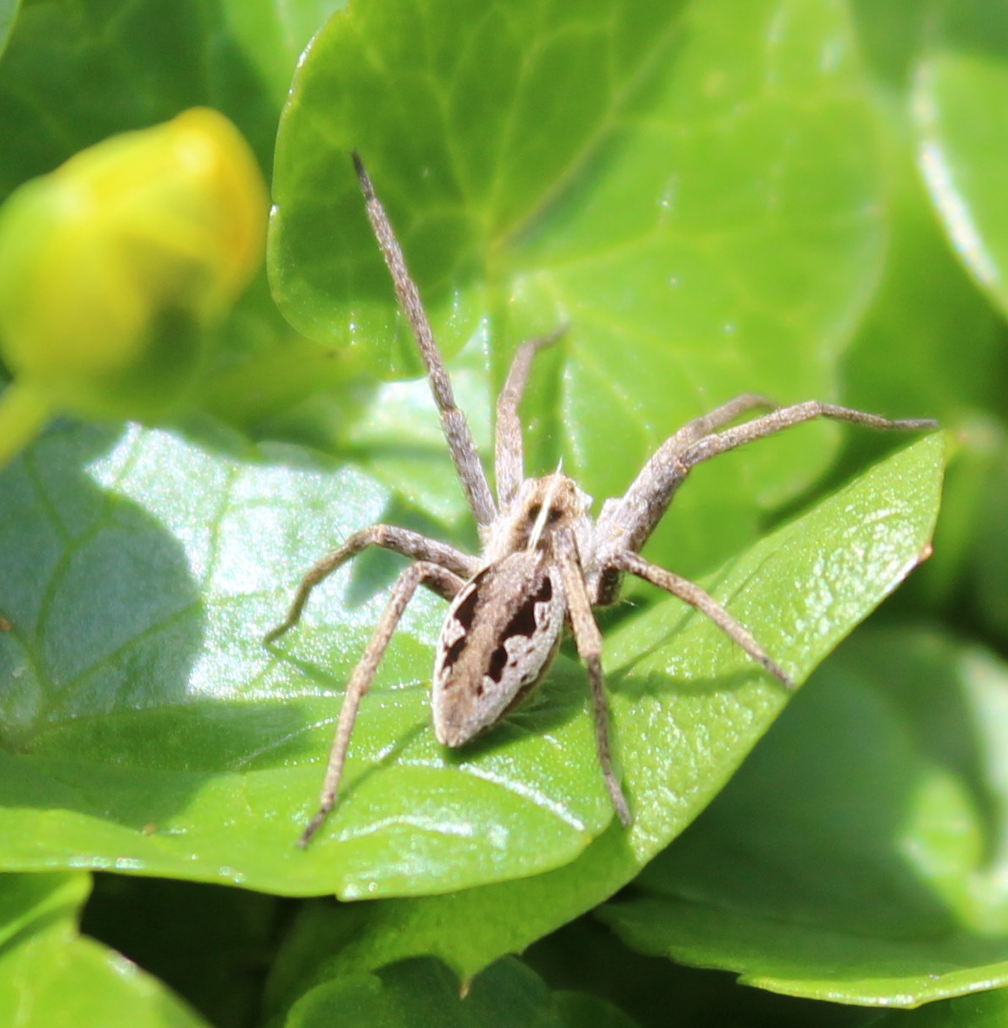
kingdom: Animalia
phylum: Arthropoda
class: Arachnida
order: Araneae
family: Pisauridae
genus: Pisaura
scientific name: Pisaura mirabilis
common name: Tent spider
